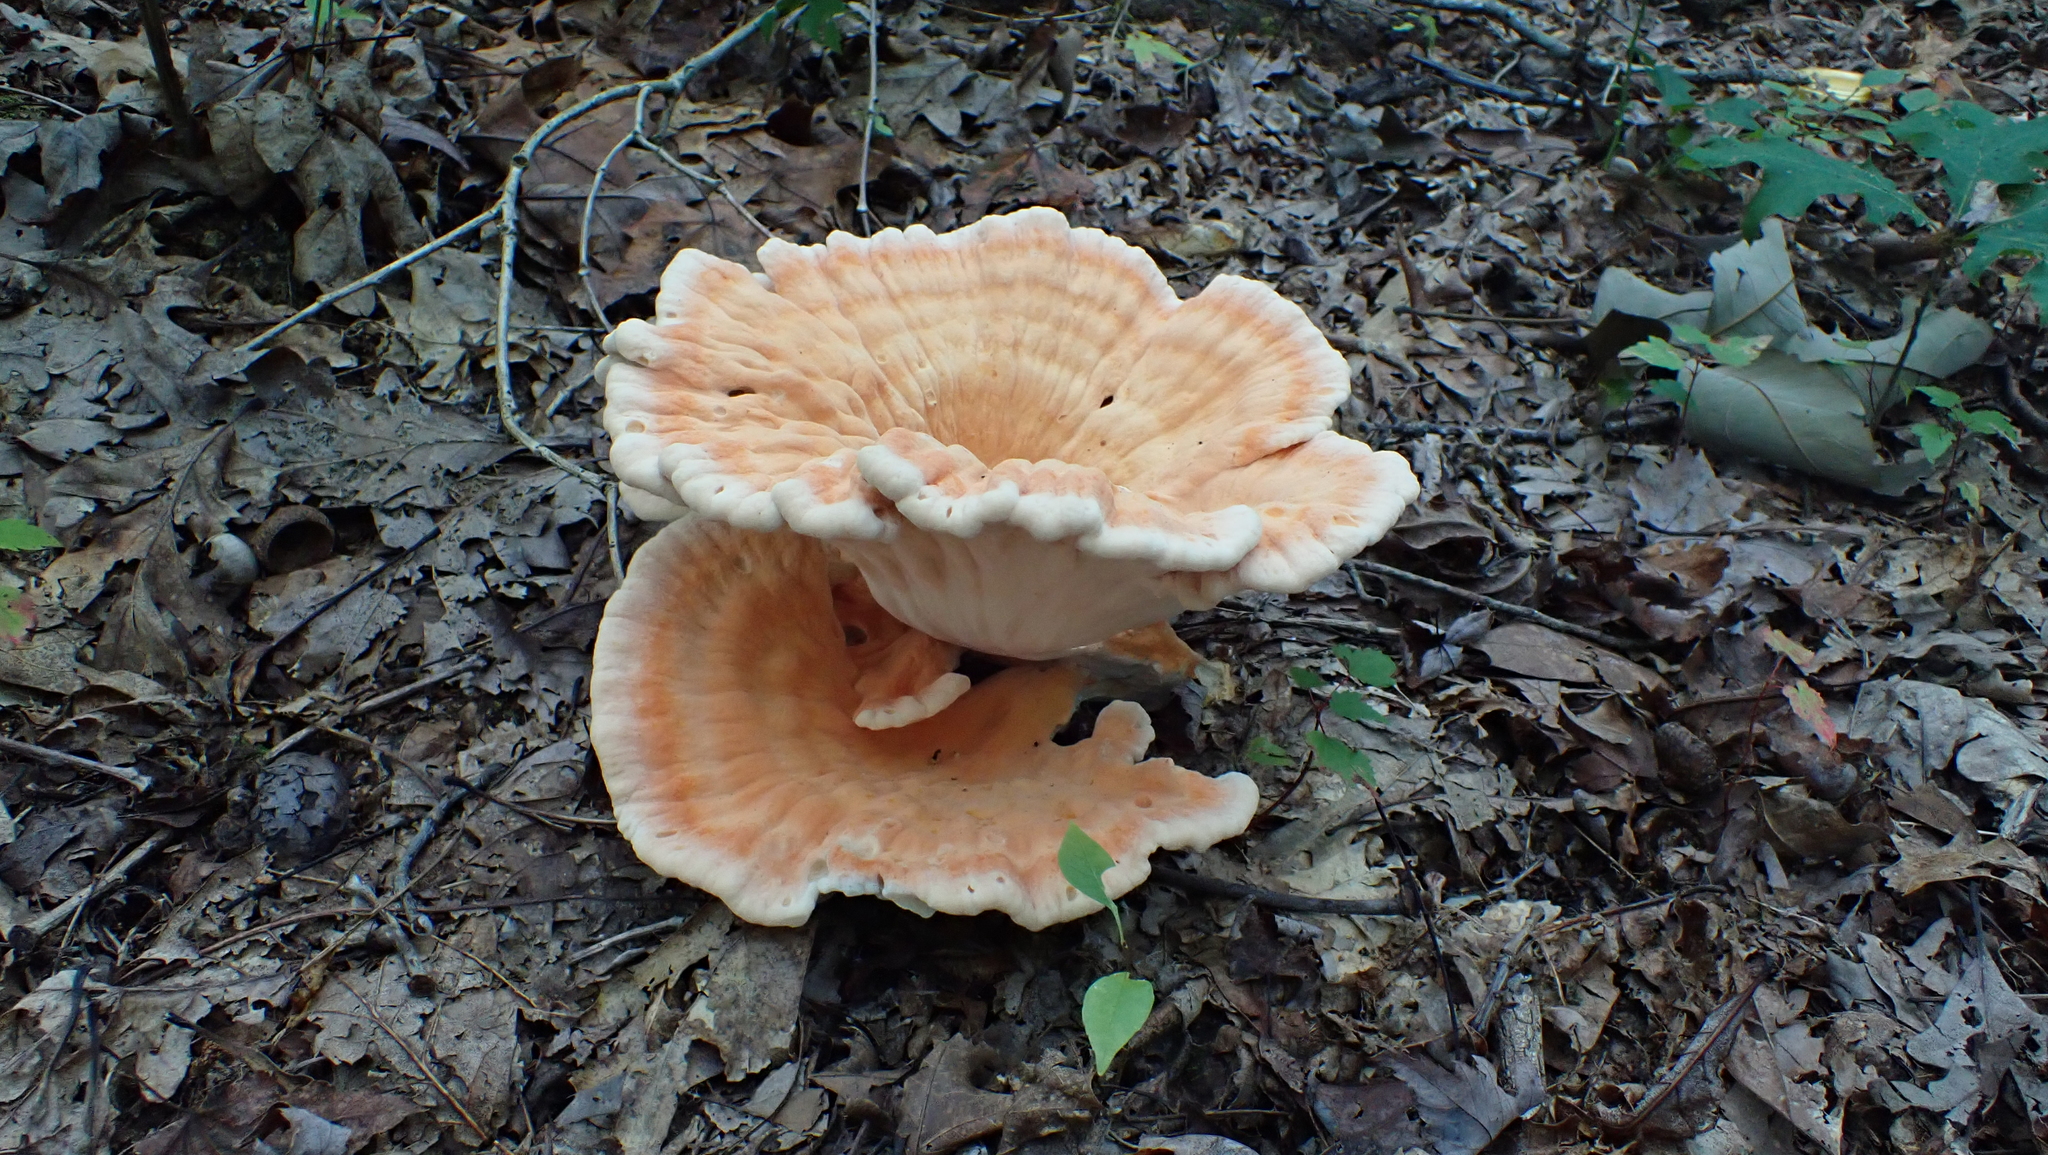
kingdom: Fungi
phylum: Basidiomycota
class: Agaricomycetes
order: Polyporales
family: Laetiporaceae
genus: Laetiporus
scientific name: Laetiporus sulphureus
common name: Chicken of the woods
